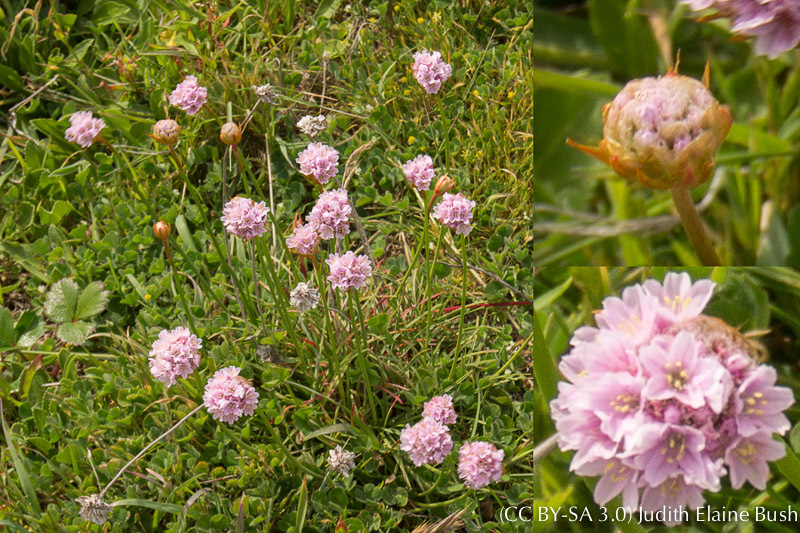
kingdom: Plantae
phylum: Tracheophyta
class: Magnoliopsida
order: Caryophyllales
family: Plumbaginaceae
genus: Armeria
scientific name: Armeria maritima
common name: Thrift
